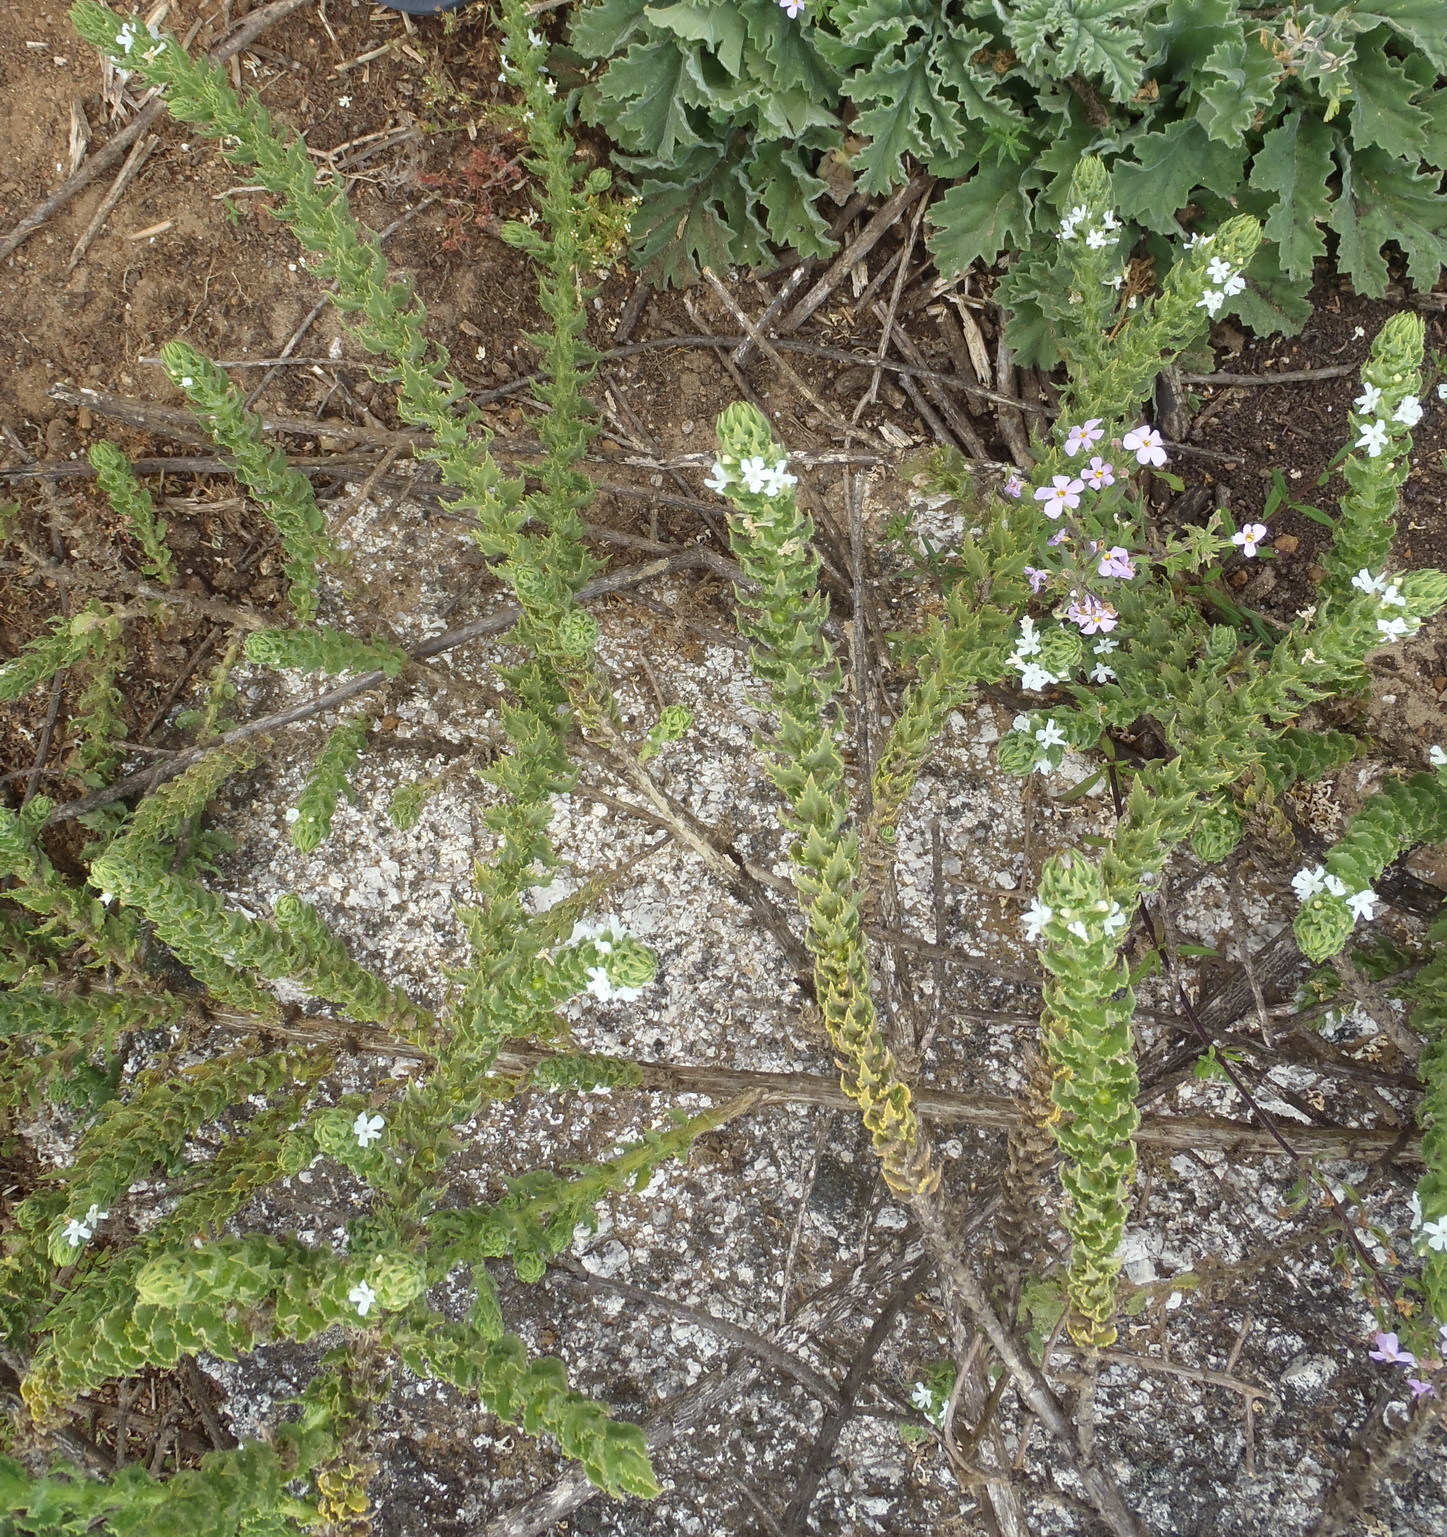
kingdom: Plantae
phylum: Tracheophyta
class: Magnoliopsida
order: Lamiales
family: Scrophulariaceae
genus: Oftia
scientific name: Oftia africana
